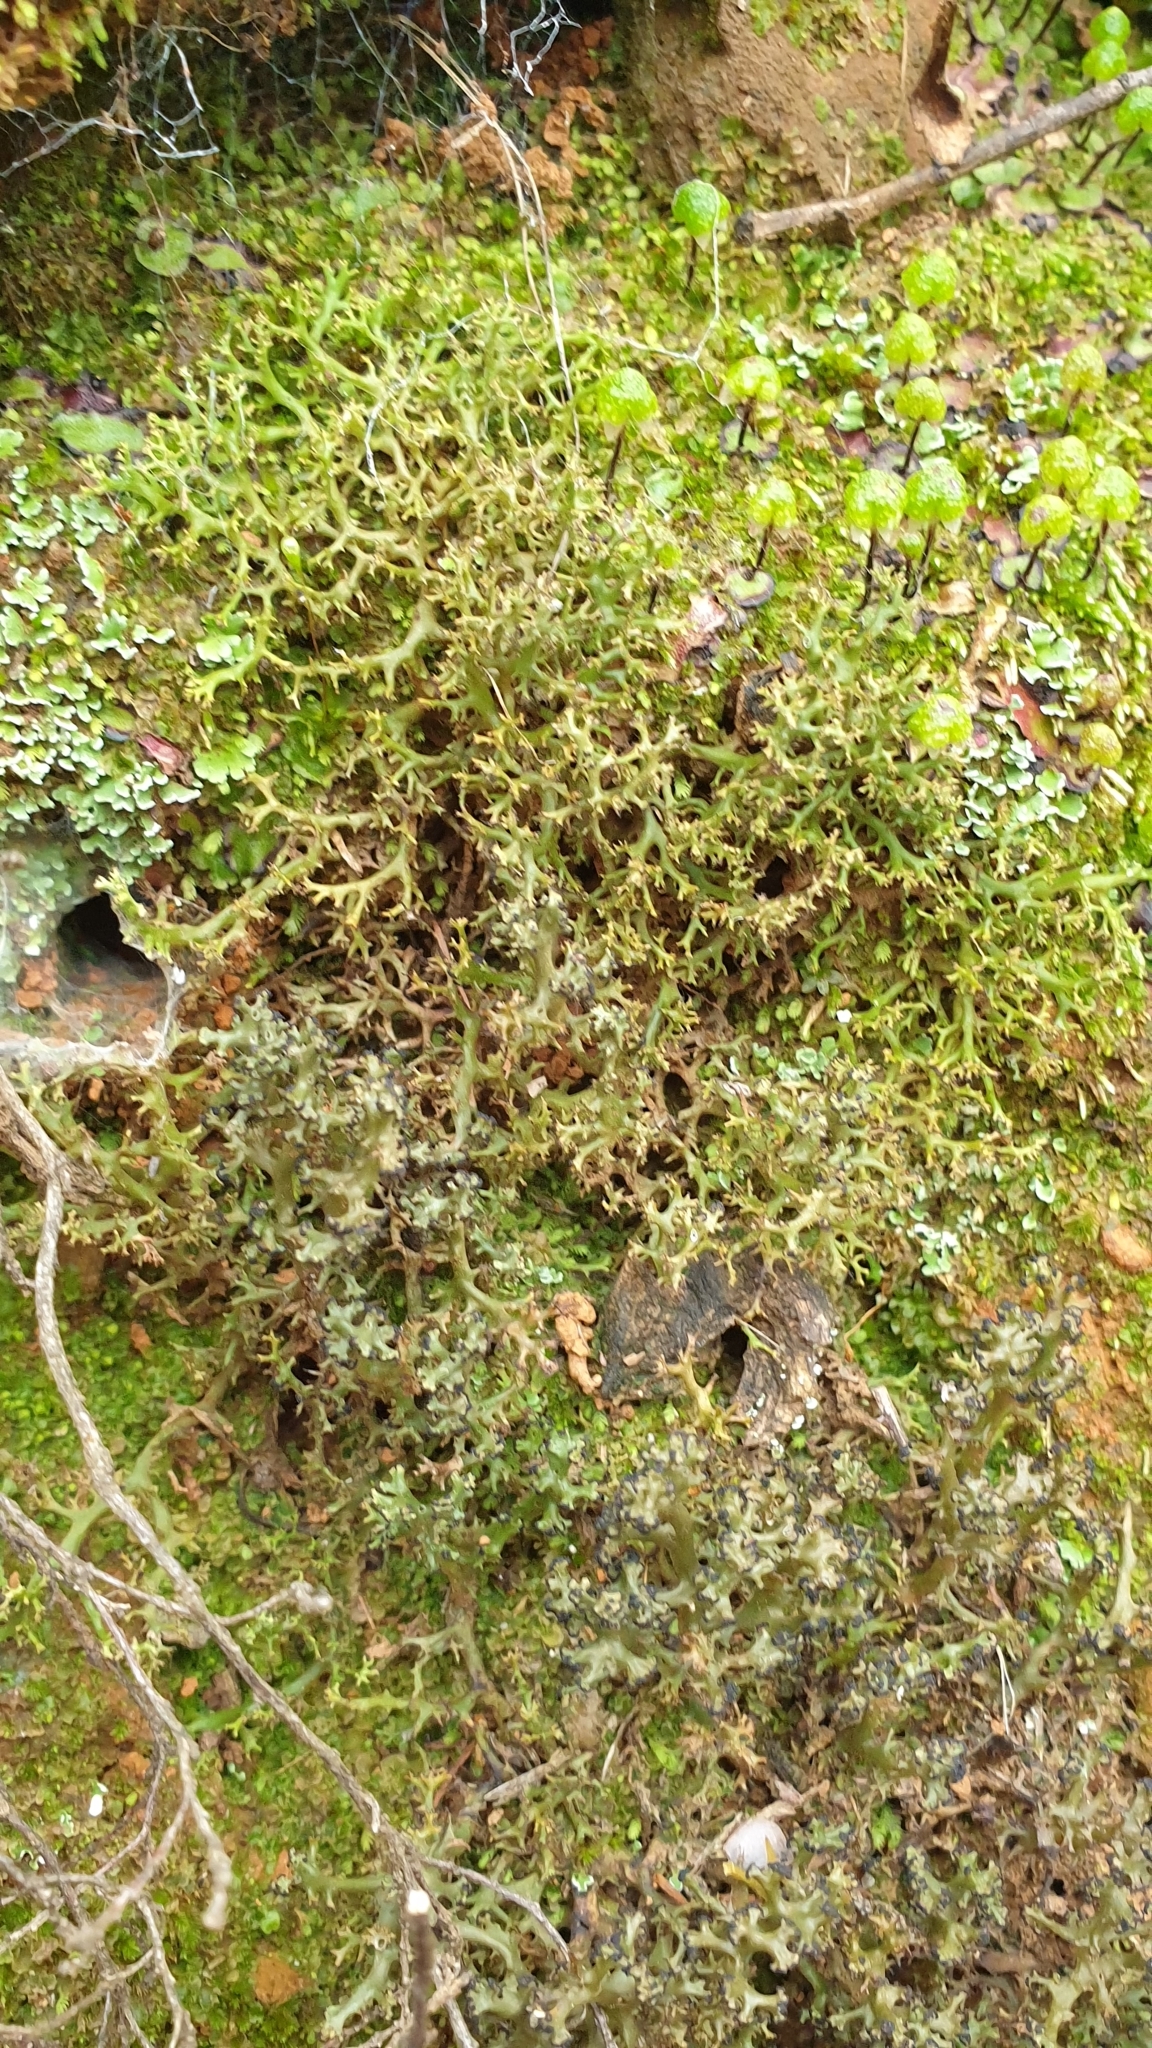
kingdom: Fungi
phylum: Ascomycota
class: Lecanoromycetes
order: Lecanorales
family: Cladoniaceae
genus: Cladia
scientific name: Cladia aggregata
